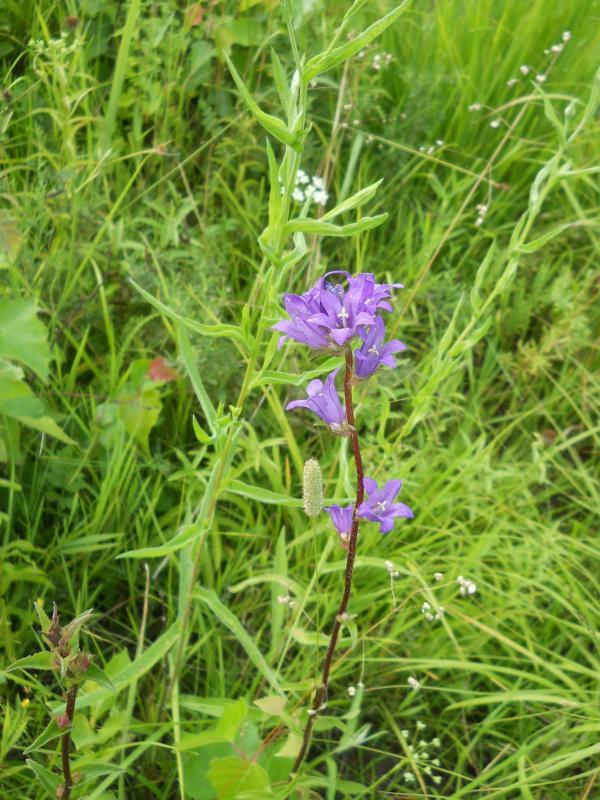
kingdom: Plantae
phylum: Tracheophyta
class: Magnoliopsida
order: Asterales
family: Campanulaceae
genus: Campanula
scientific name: Campanula glomerata
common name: Clustered bellflower
